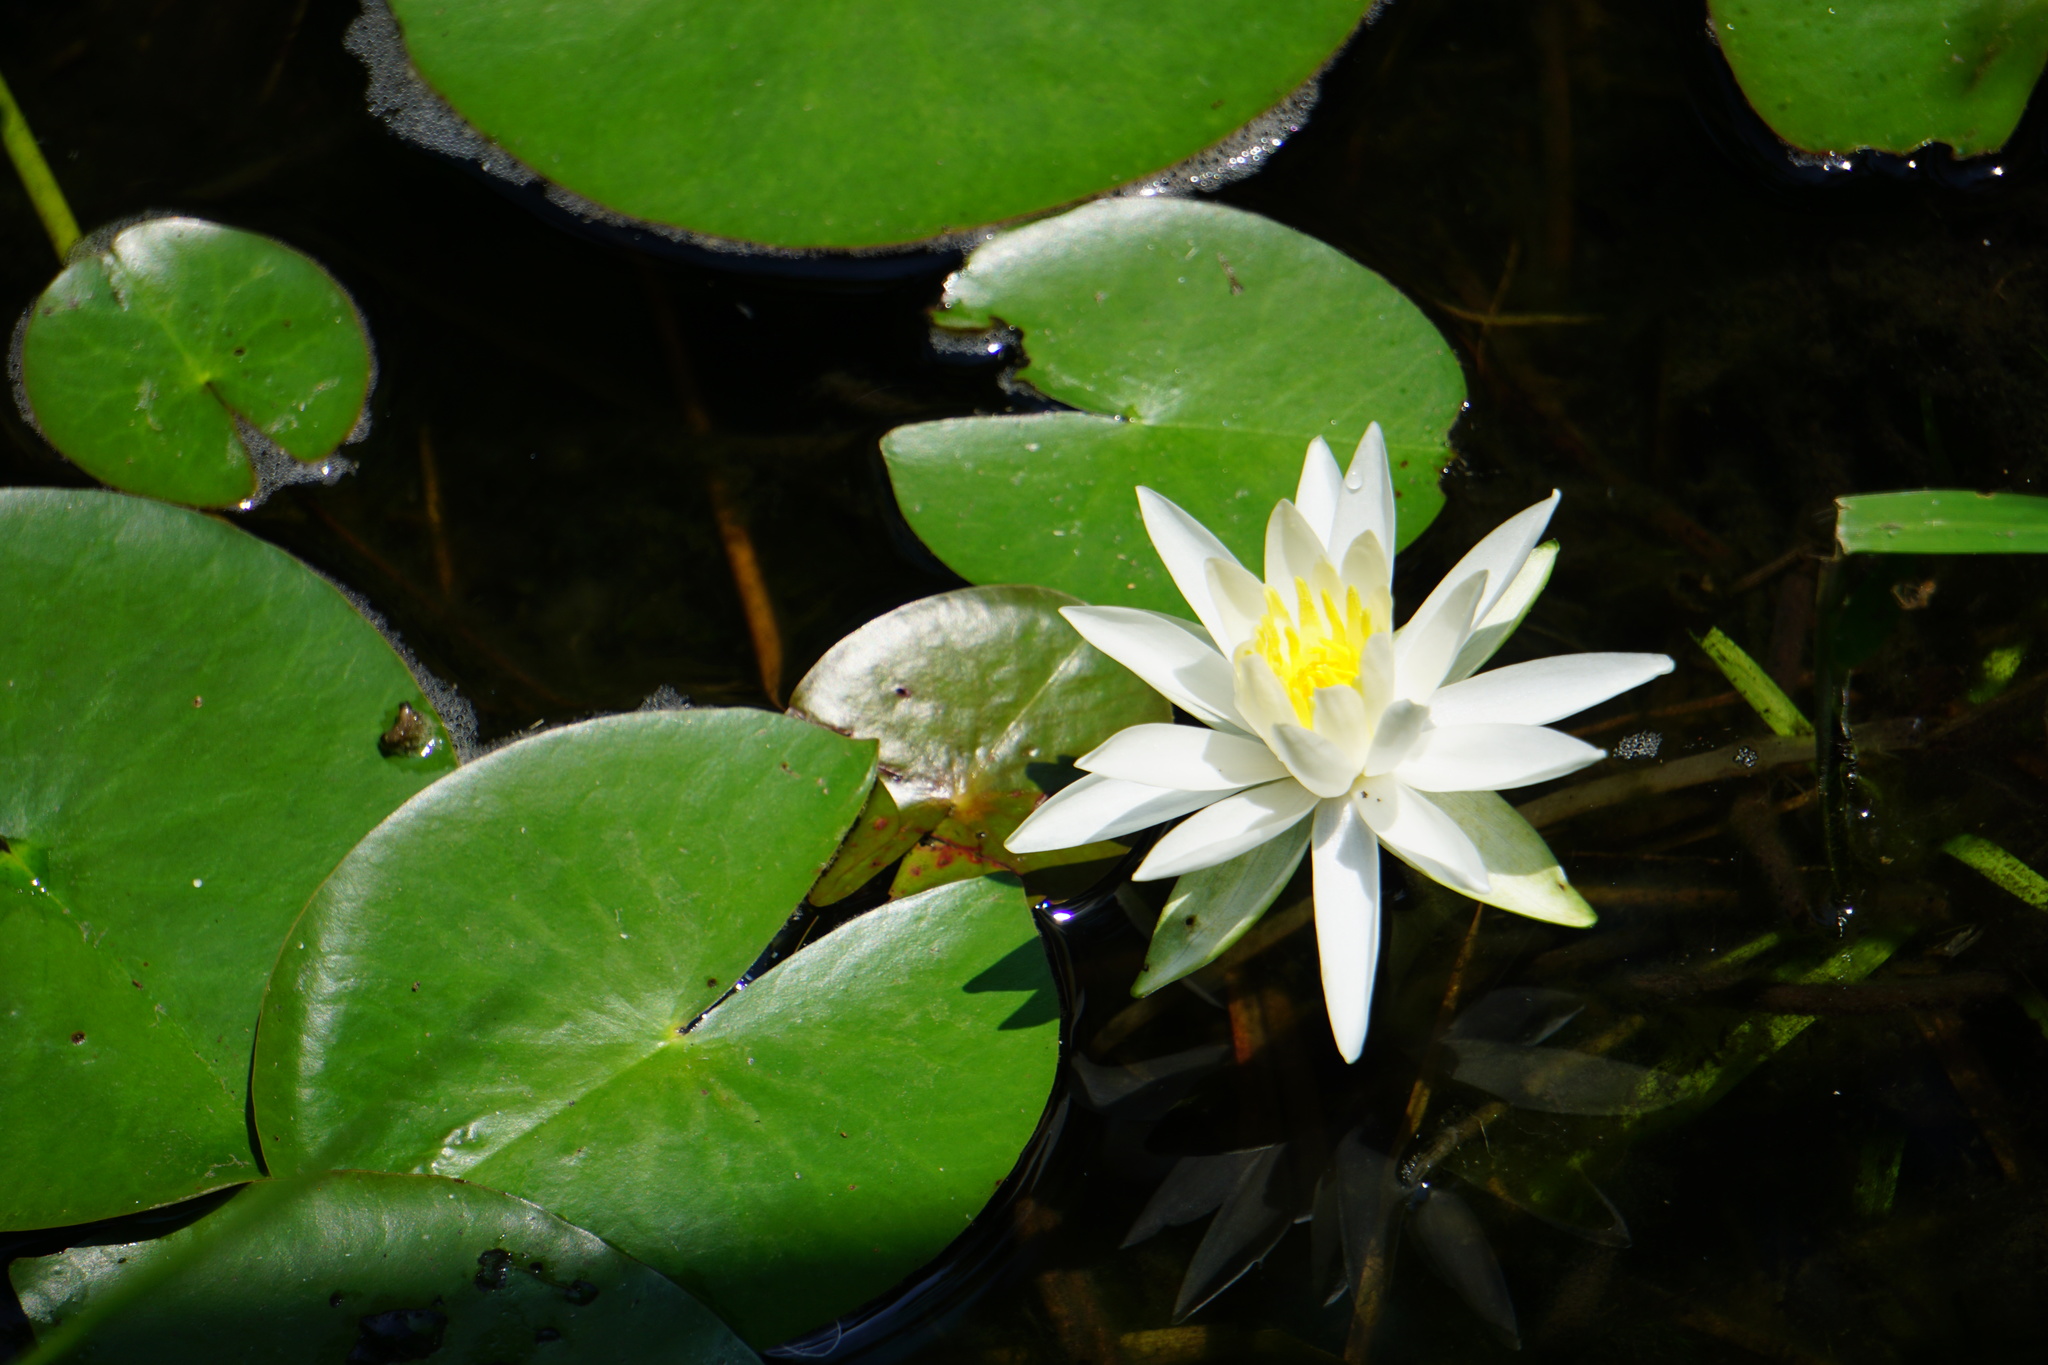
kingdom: Plantae
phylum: Tracheophyta
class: Magnoliopsida
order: Nymphaeales
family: Nymphaeaceae
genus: Nymphaea
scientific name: Nymphaea odorata
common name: Fragrant water-lily
